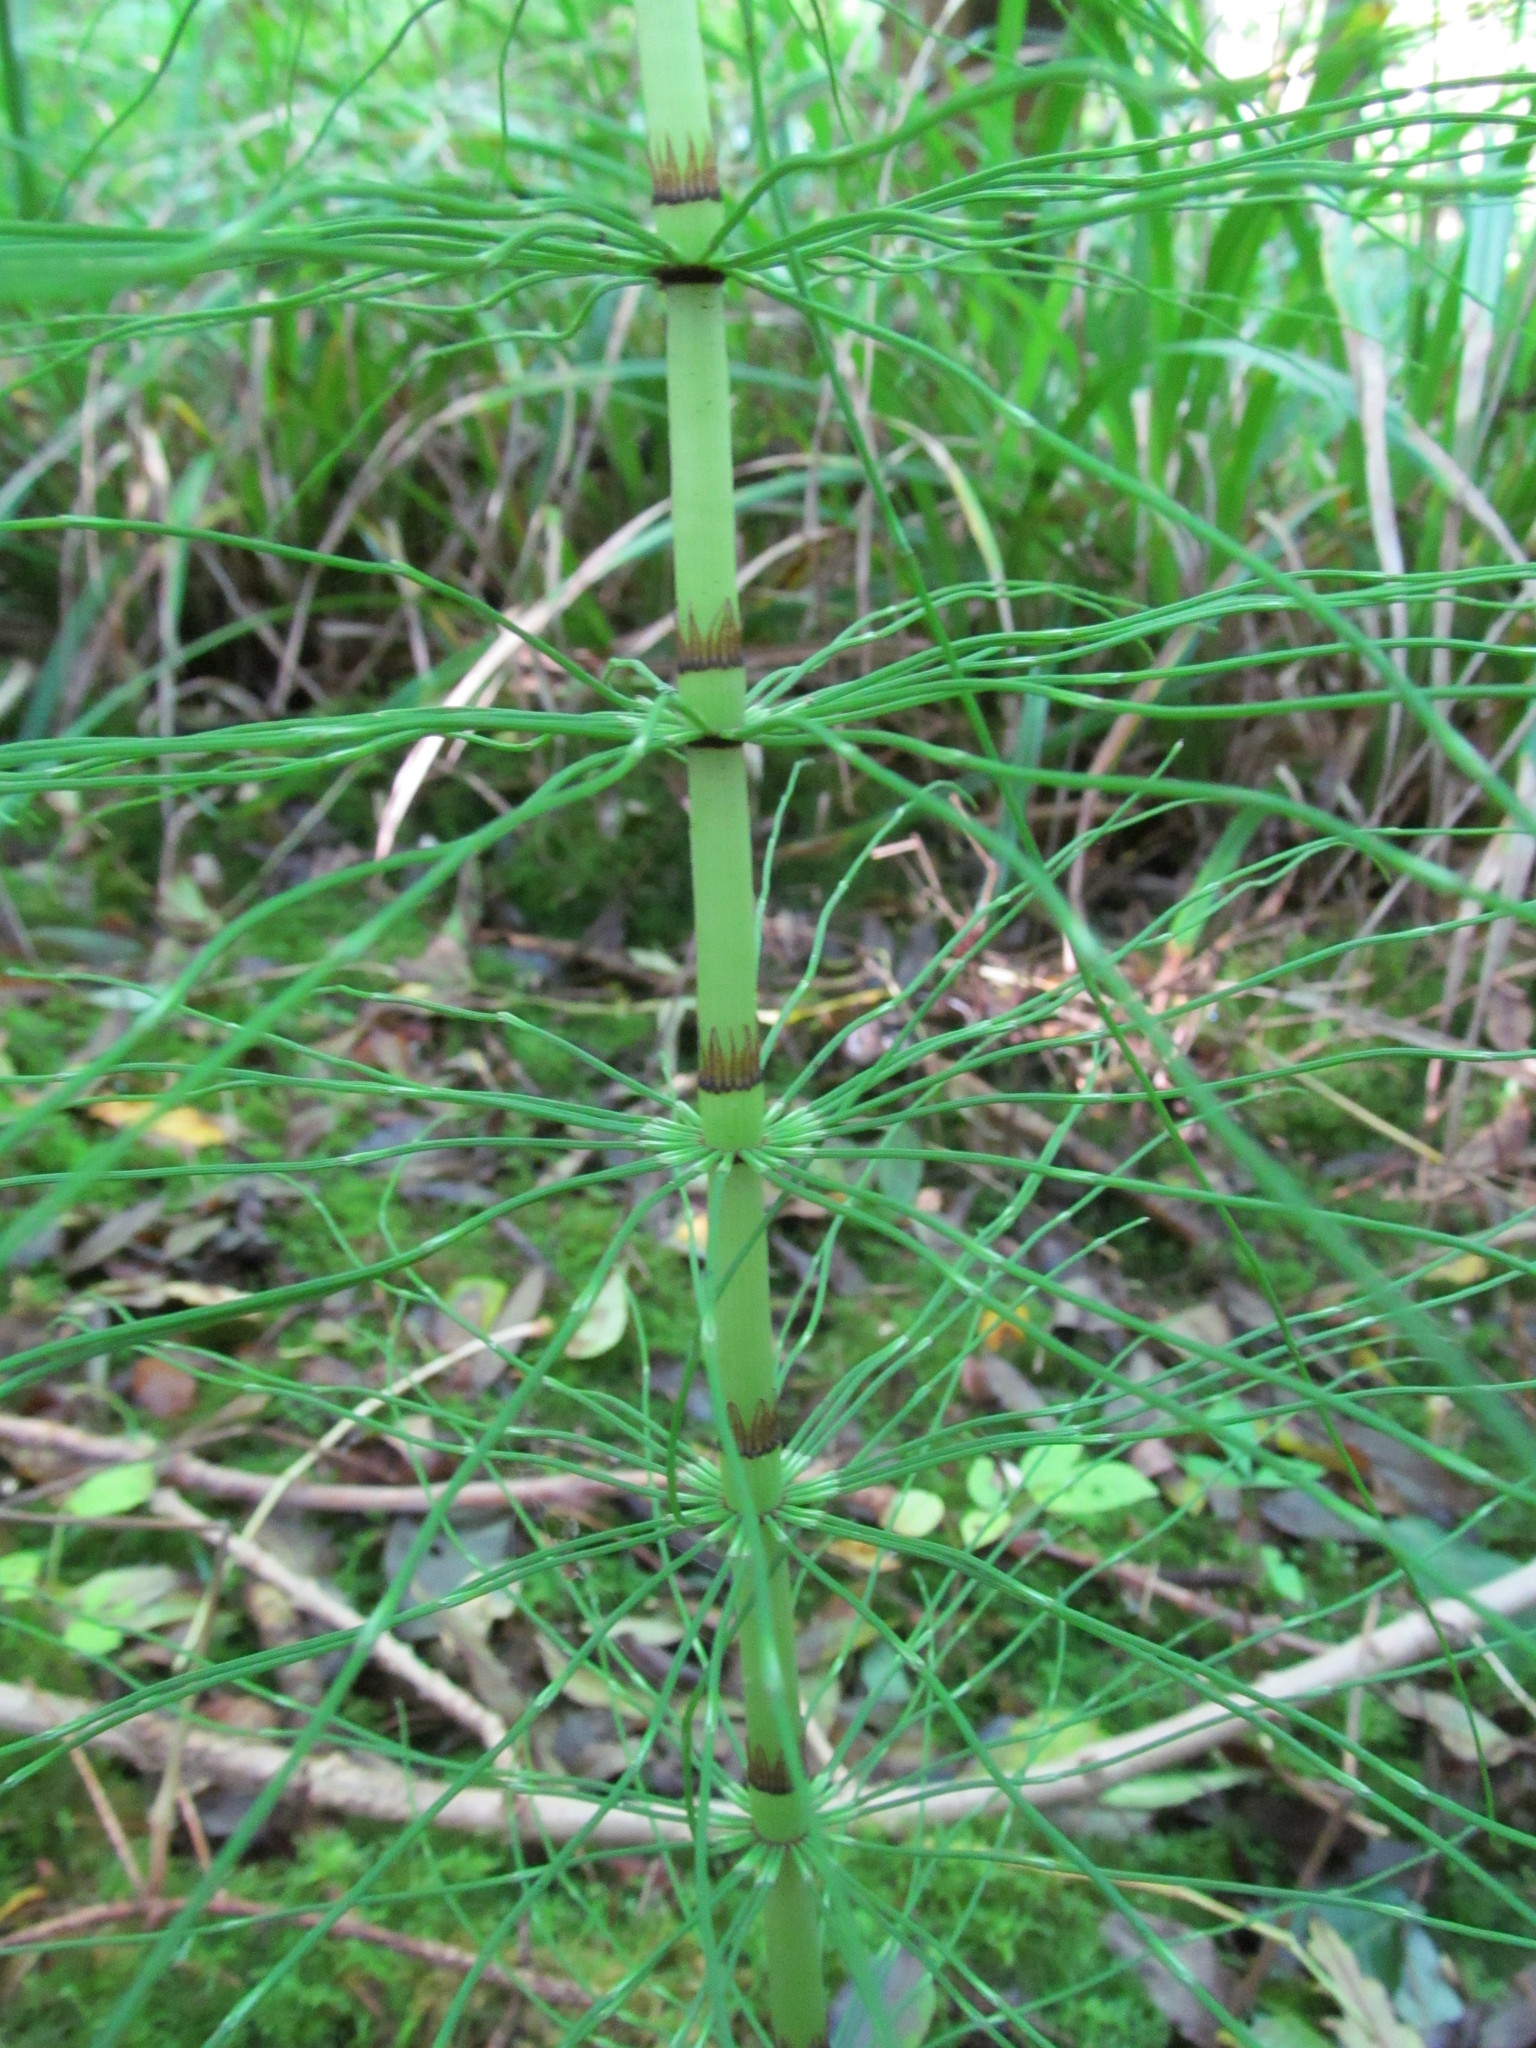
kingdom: Plantae
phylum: Tracheophyta
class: Polypodiopsida
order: Equisetales
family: Equisetaceae
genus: Equisetum
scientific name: Equisetum telmateia
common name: Great horsetail
